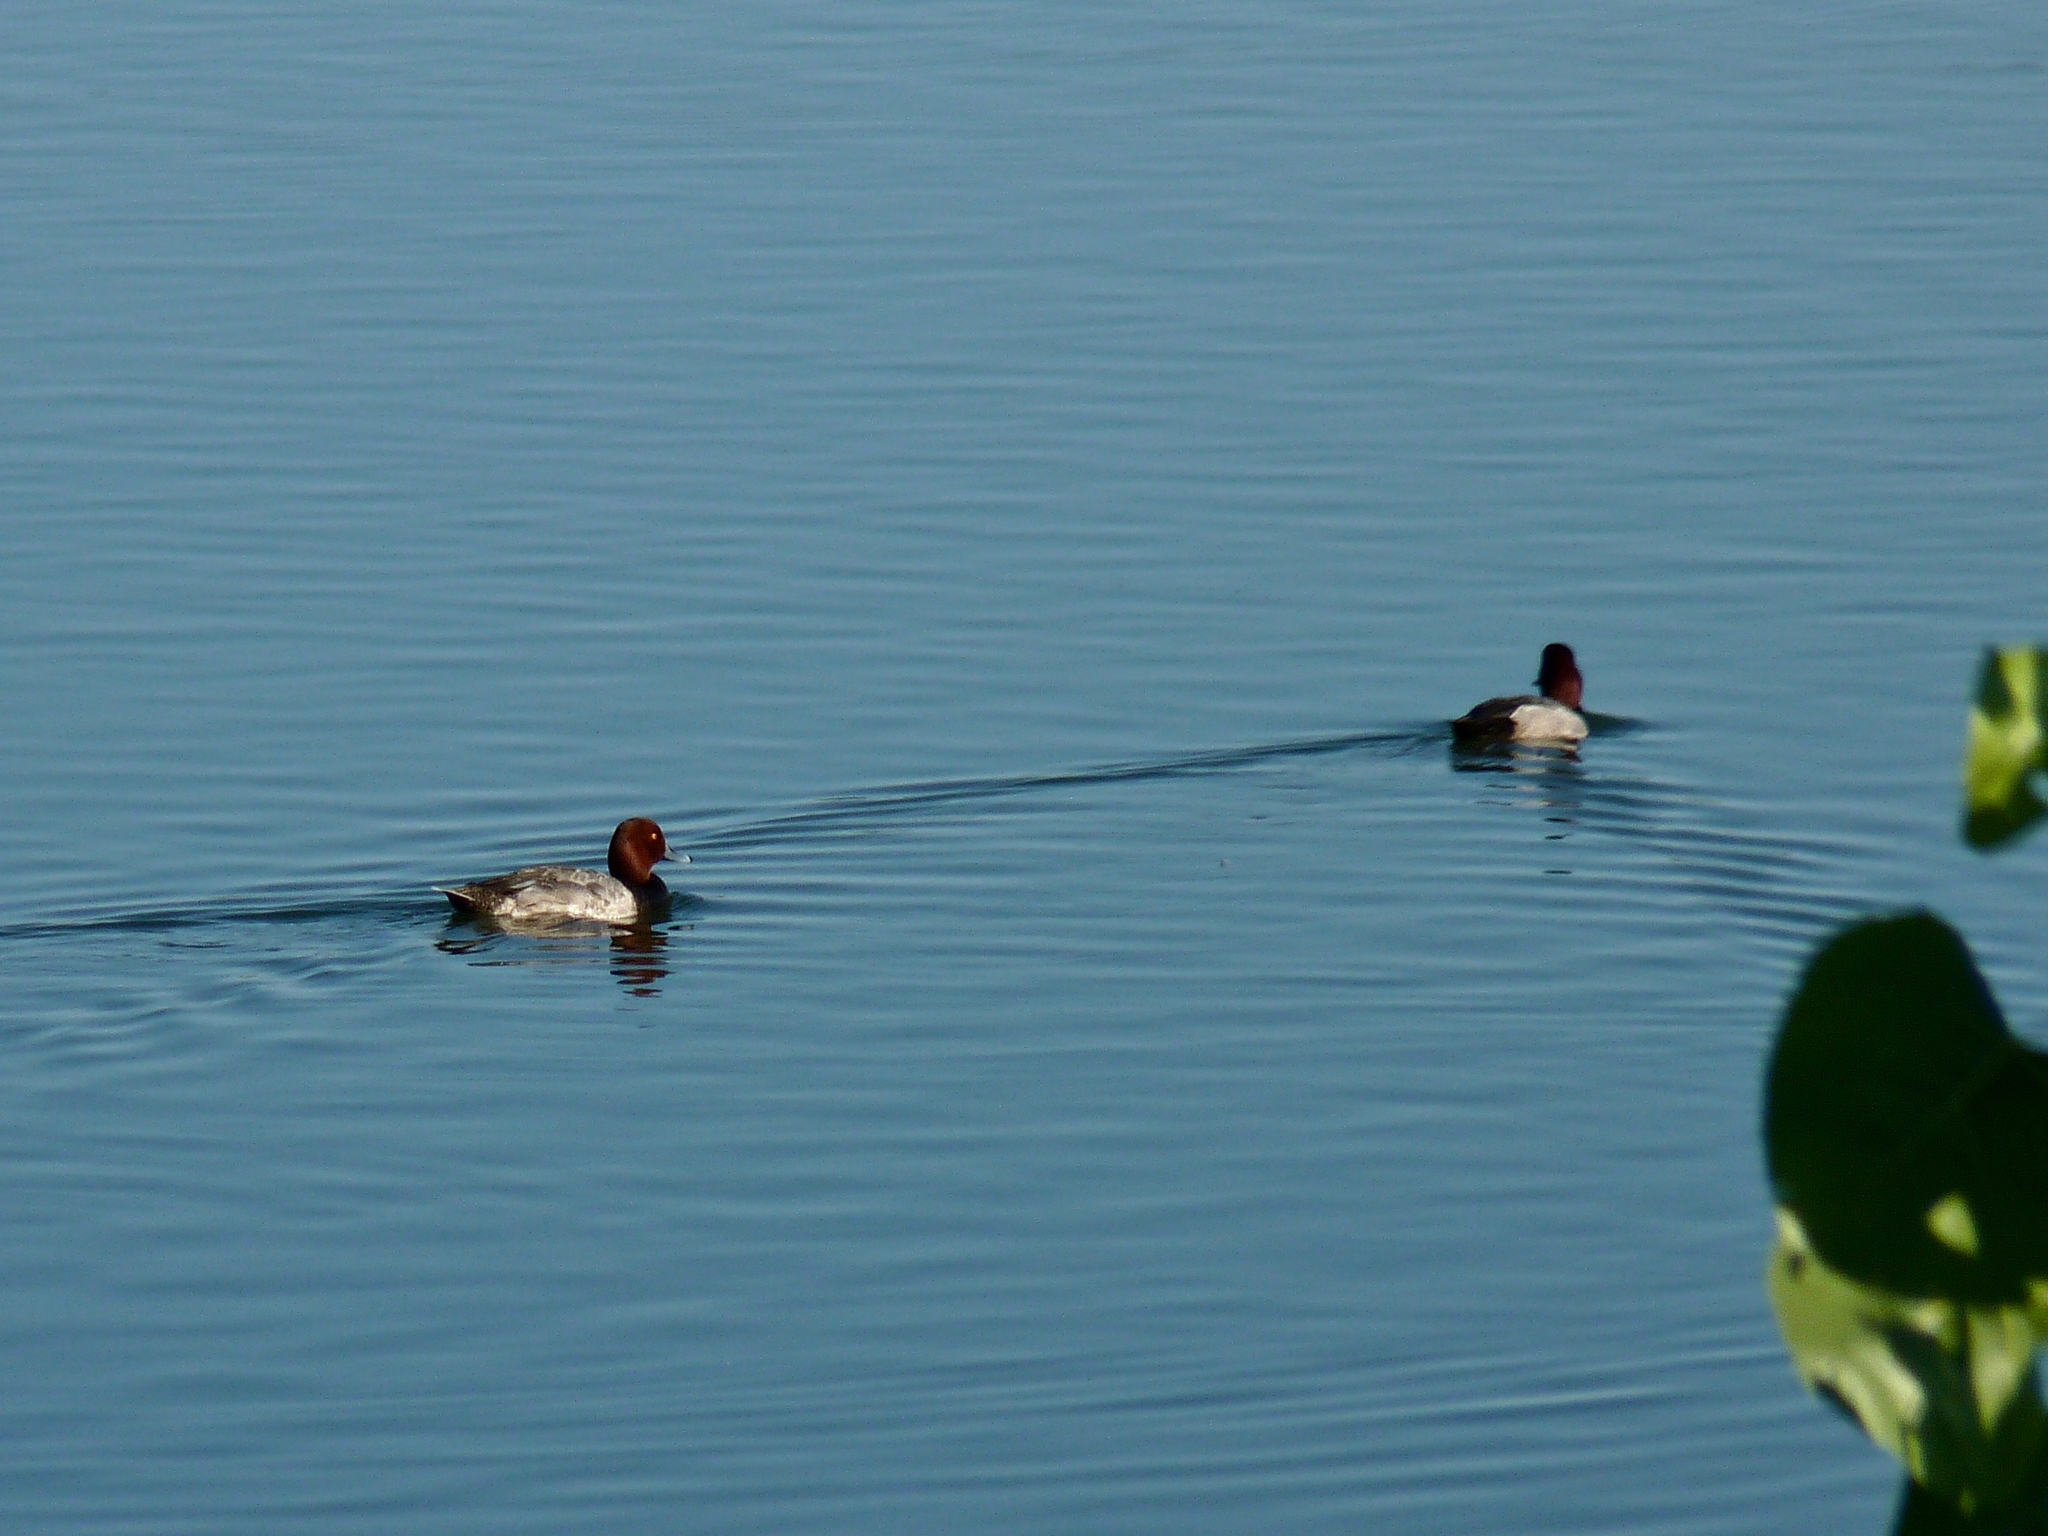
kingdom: Animalia
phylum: Chordata
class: Aves
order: Anseriformes
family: Anatidae
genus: Aythya
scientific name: Aythya americana
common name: Redhead
